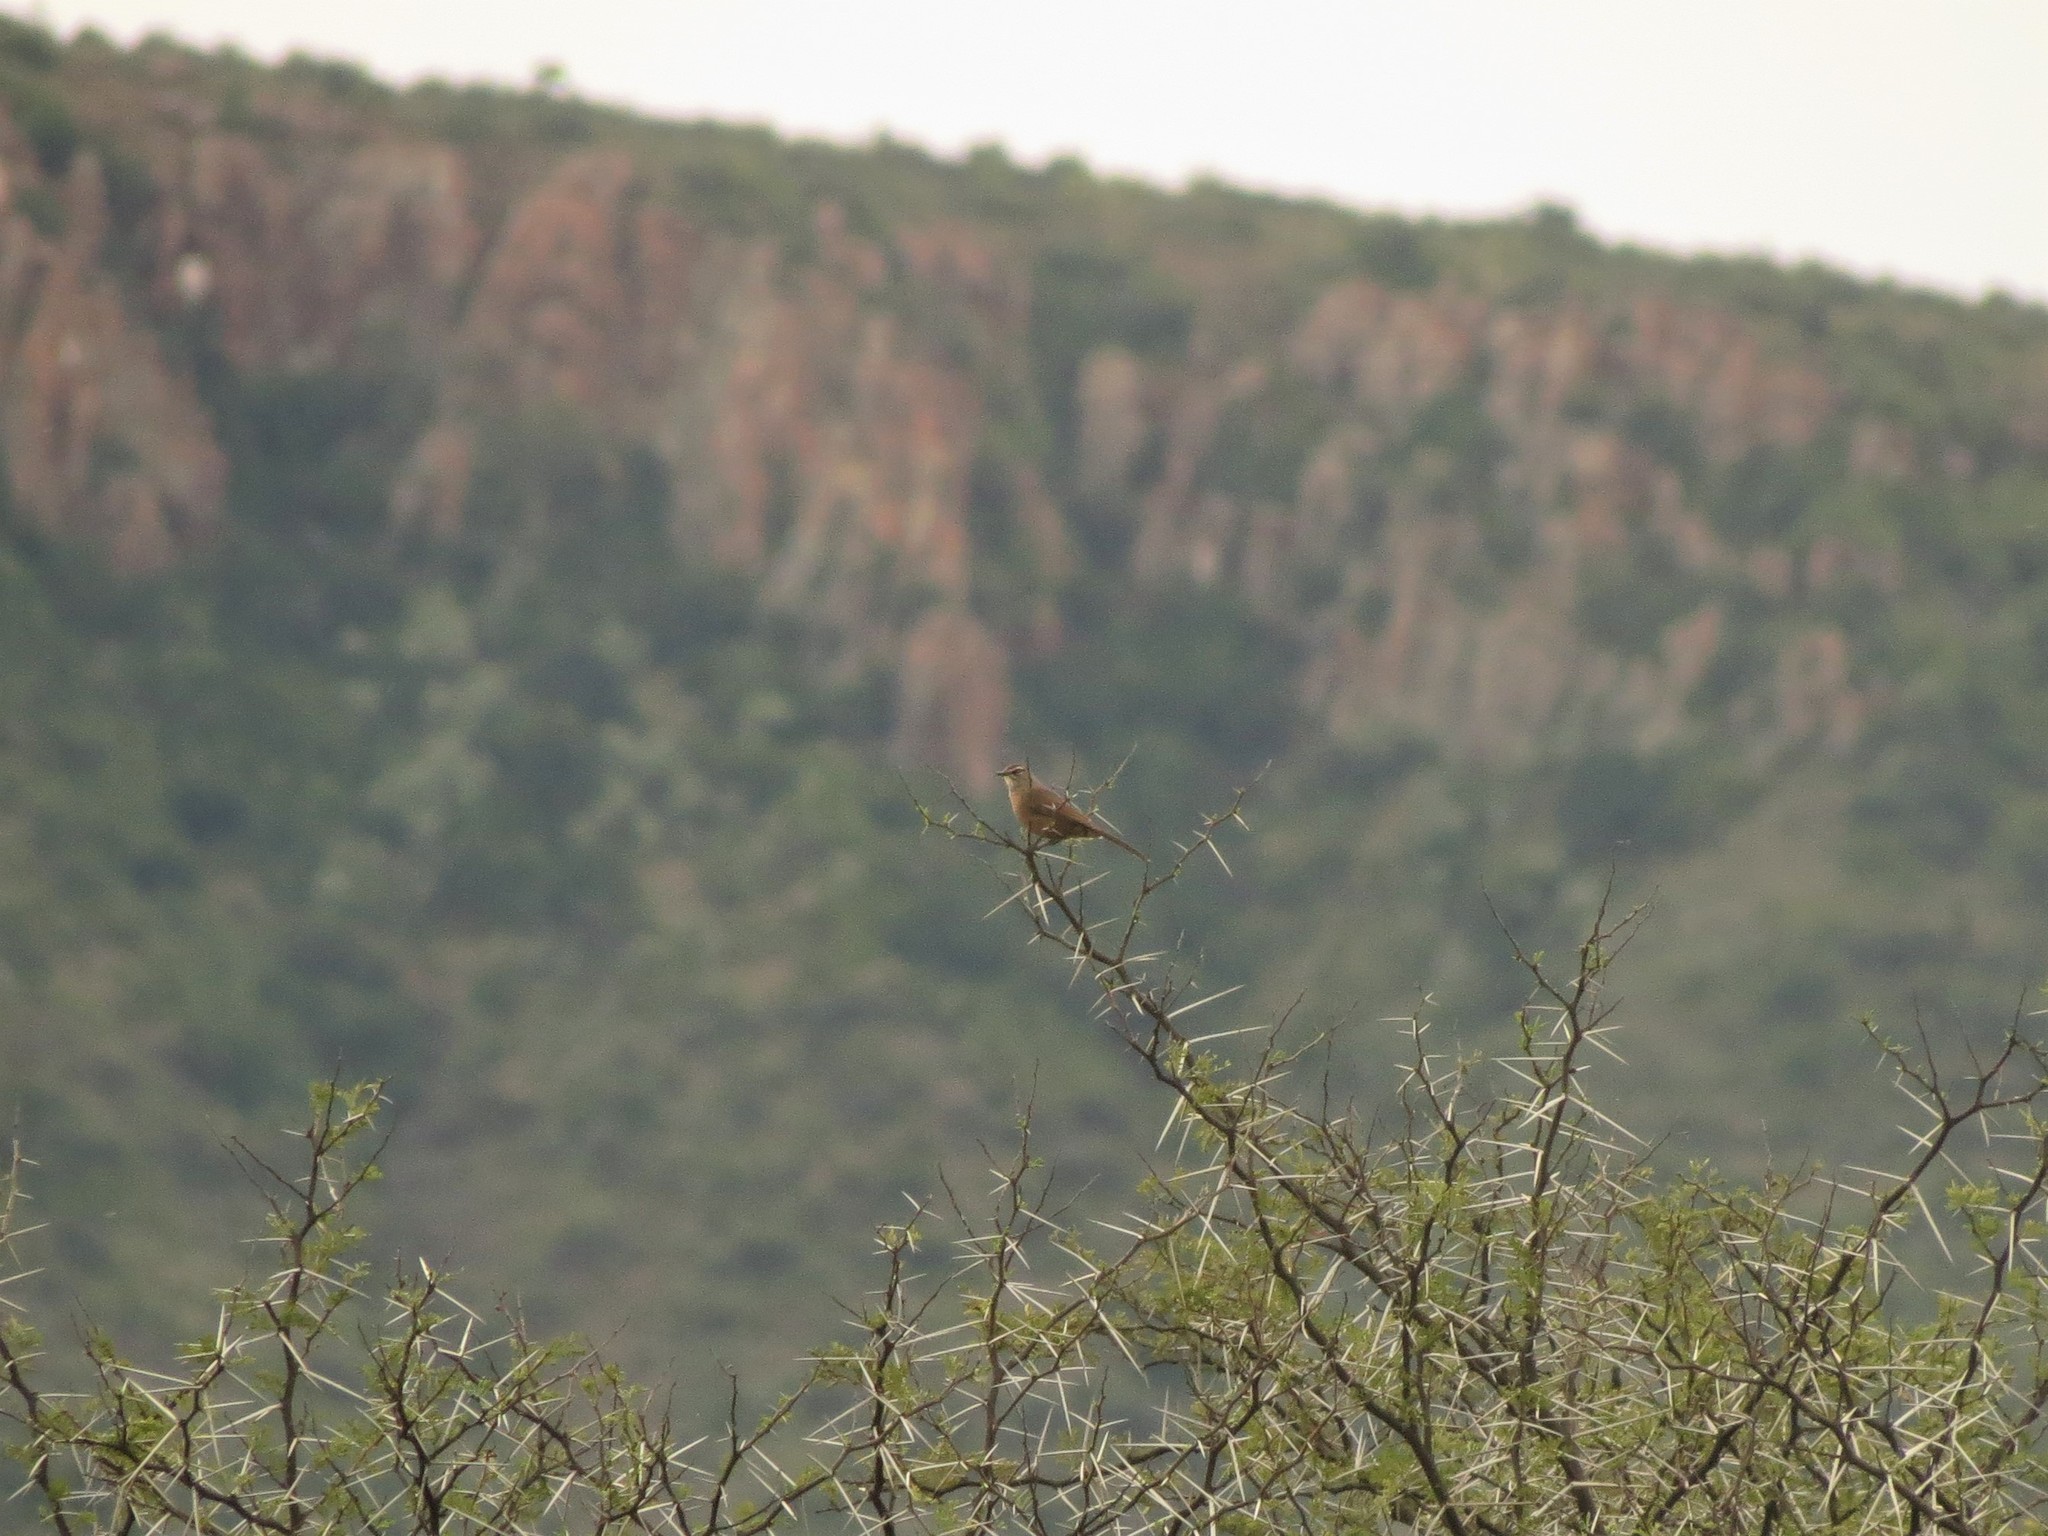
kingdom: Animalia
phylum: Chordata
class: Aves
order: Passeriformes
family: Muscicapidae
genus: Erythropygia
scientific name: Erythropygia coryphoeus
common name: Karoo scrub robin
